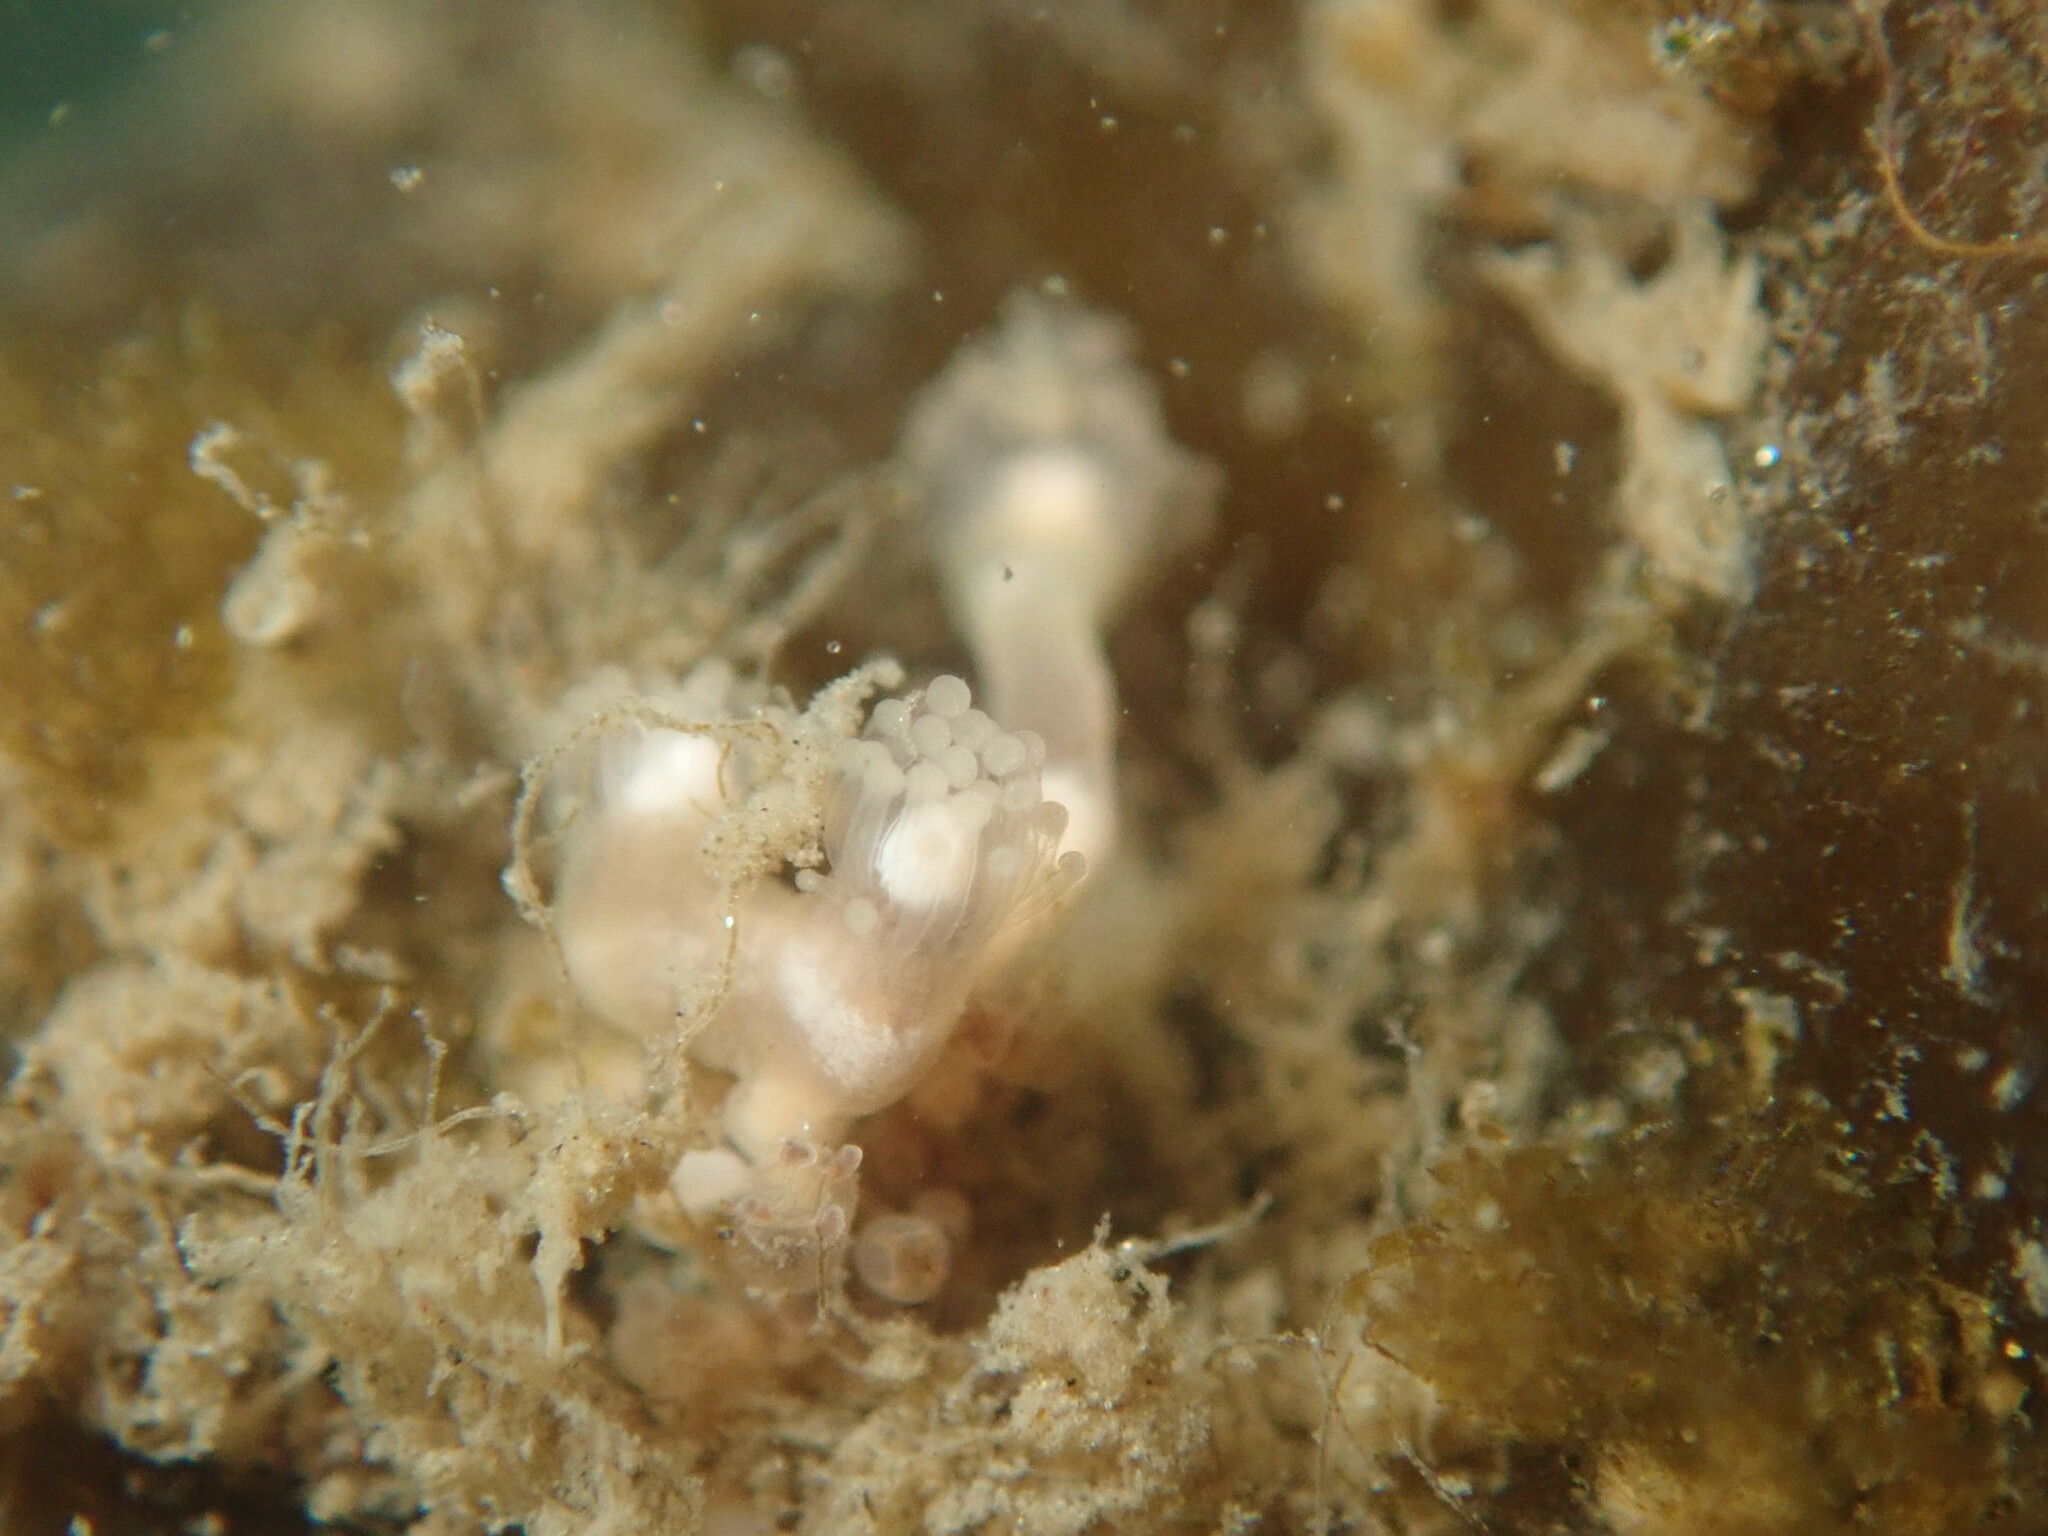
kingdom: Animalia
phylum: Cnidaria
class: Hydrozoa
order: Anthoathecata
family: Hydrocorynidae
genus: Hydrocoryne
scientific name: Hydrocoryne bodegensis
